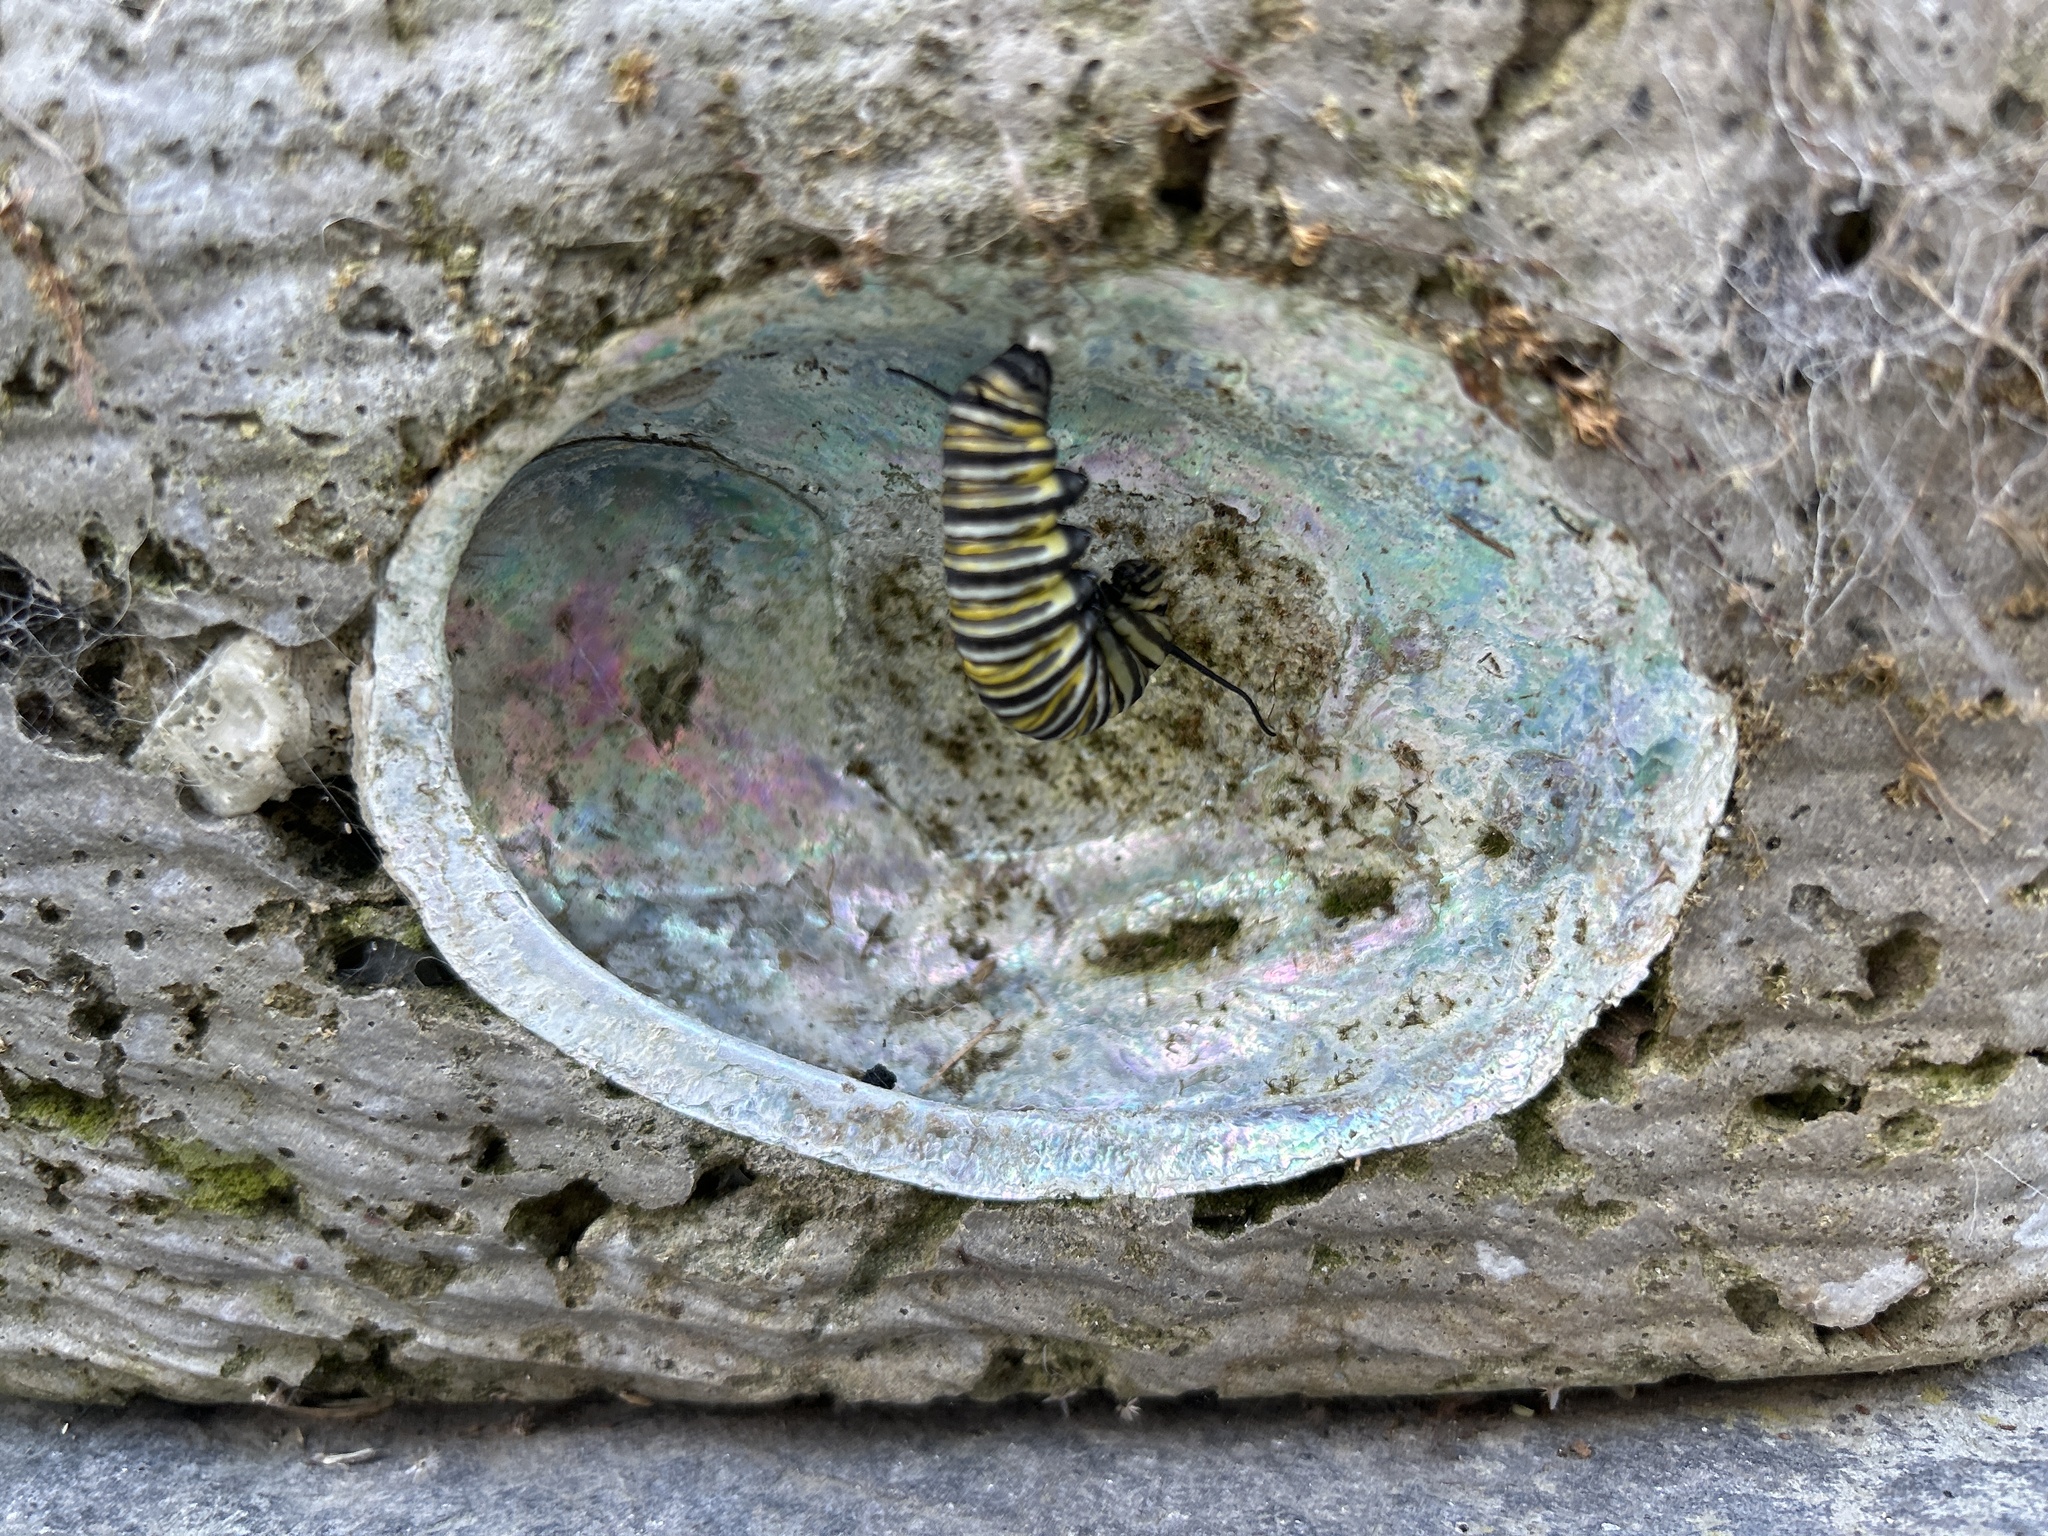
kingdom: Animalia
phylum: Arthropoda
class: Insecta
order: Lepidoptera
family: Nymphalidae
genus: Danaus
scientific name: Danaus plexippus
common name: Monarch
